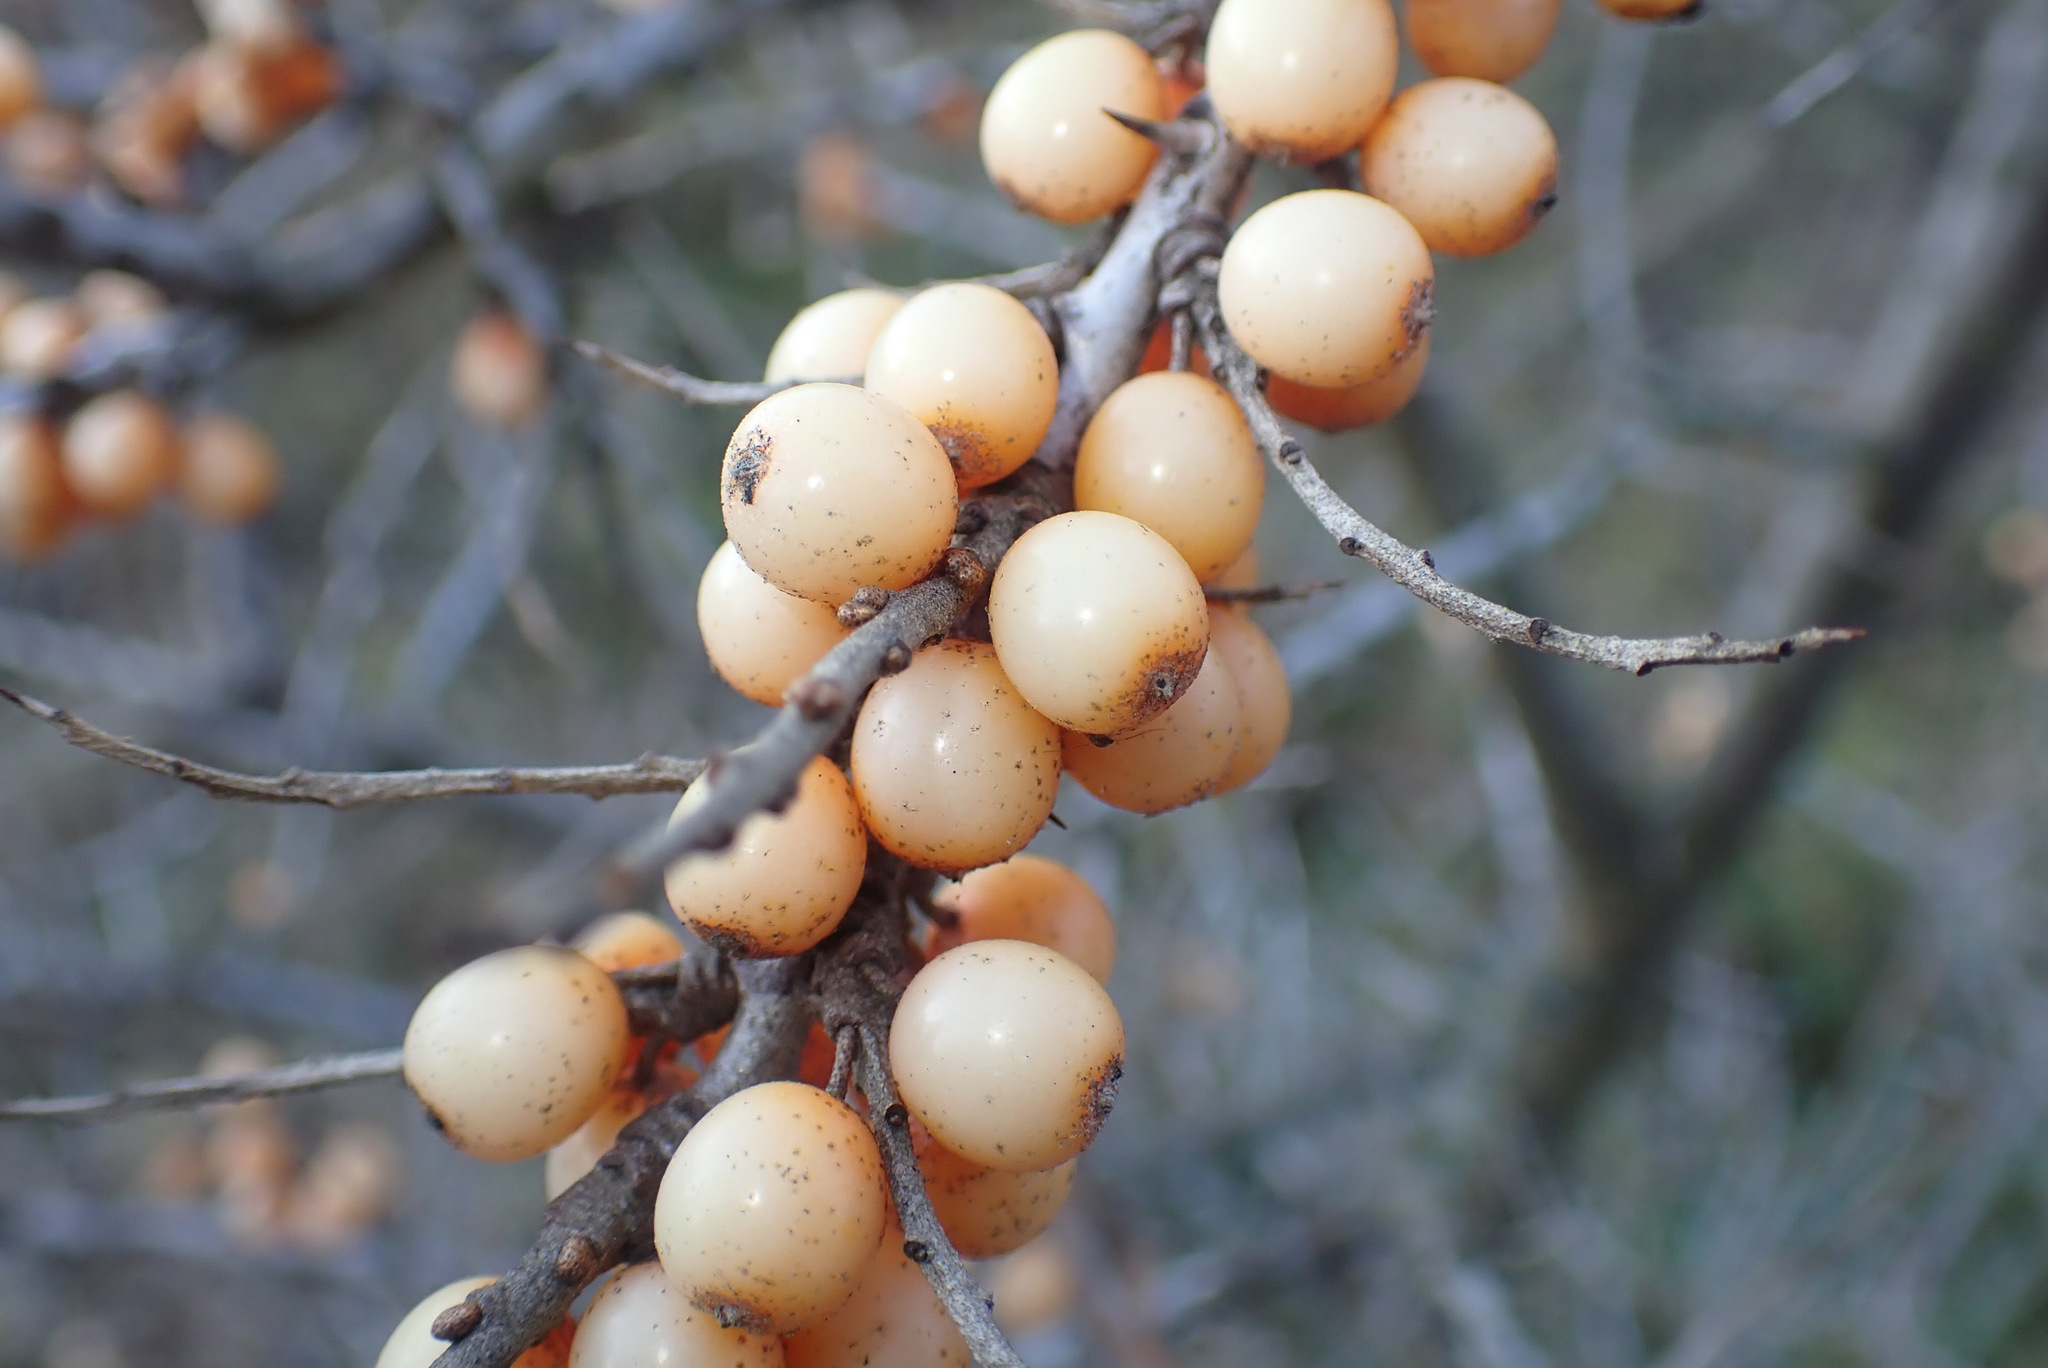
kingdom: Plantae
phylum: Tracheophyta
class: Magnoliopsida
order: Rosales
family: Elaeagnaceae
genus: Hippophae
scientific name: Hippophae rhamnoides
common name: Sea-buckthorn
